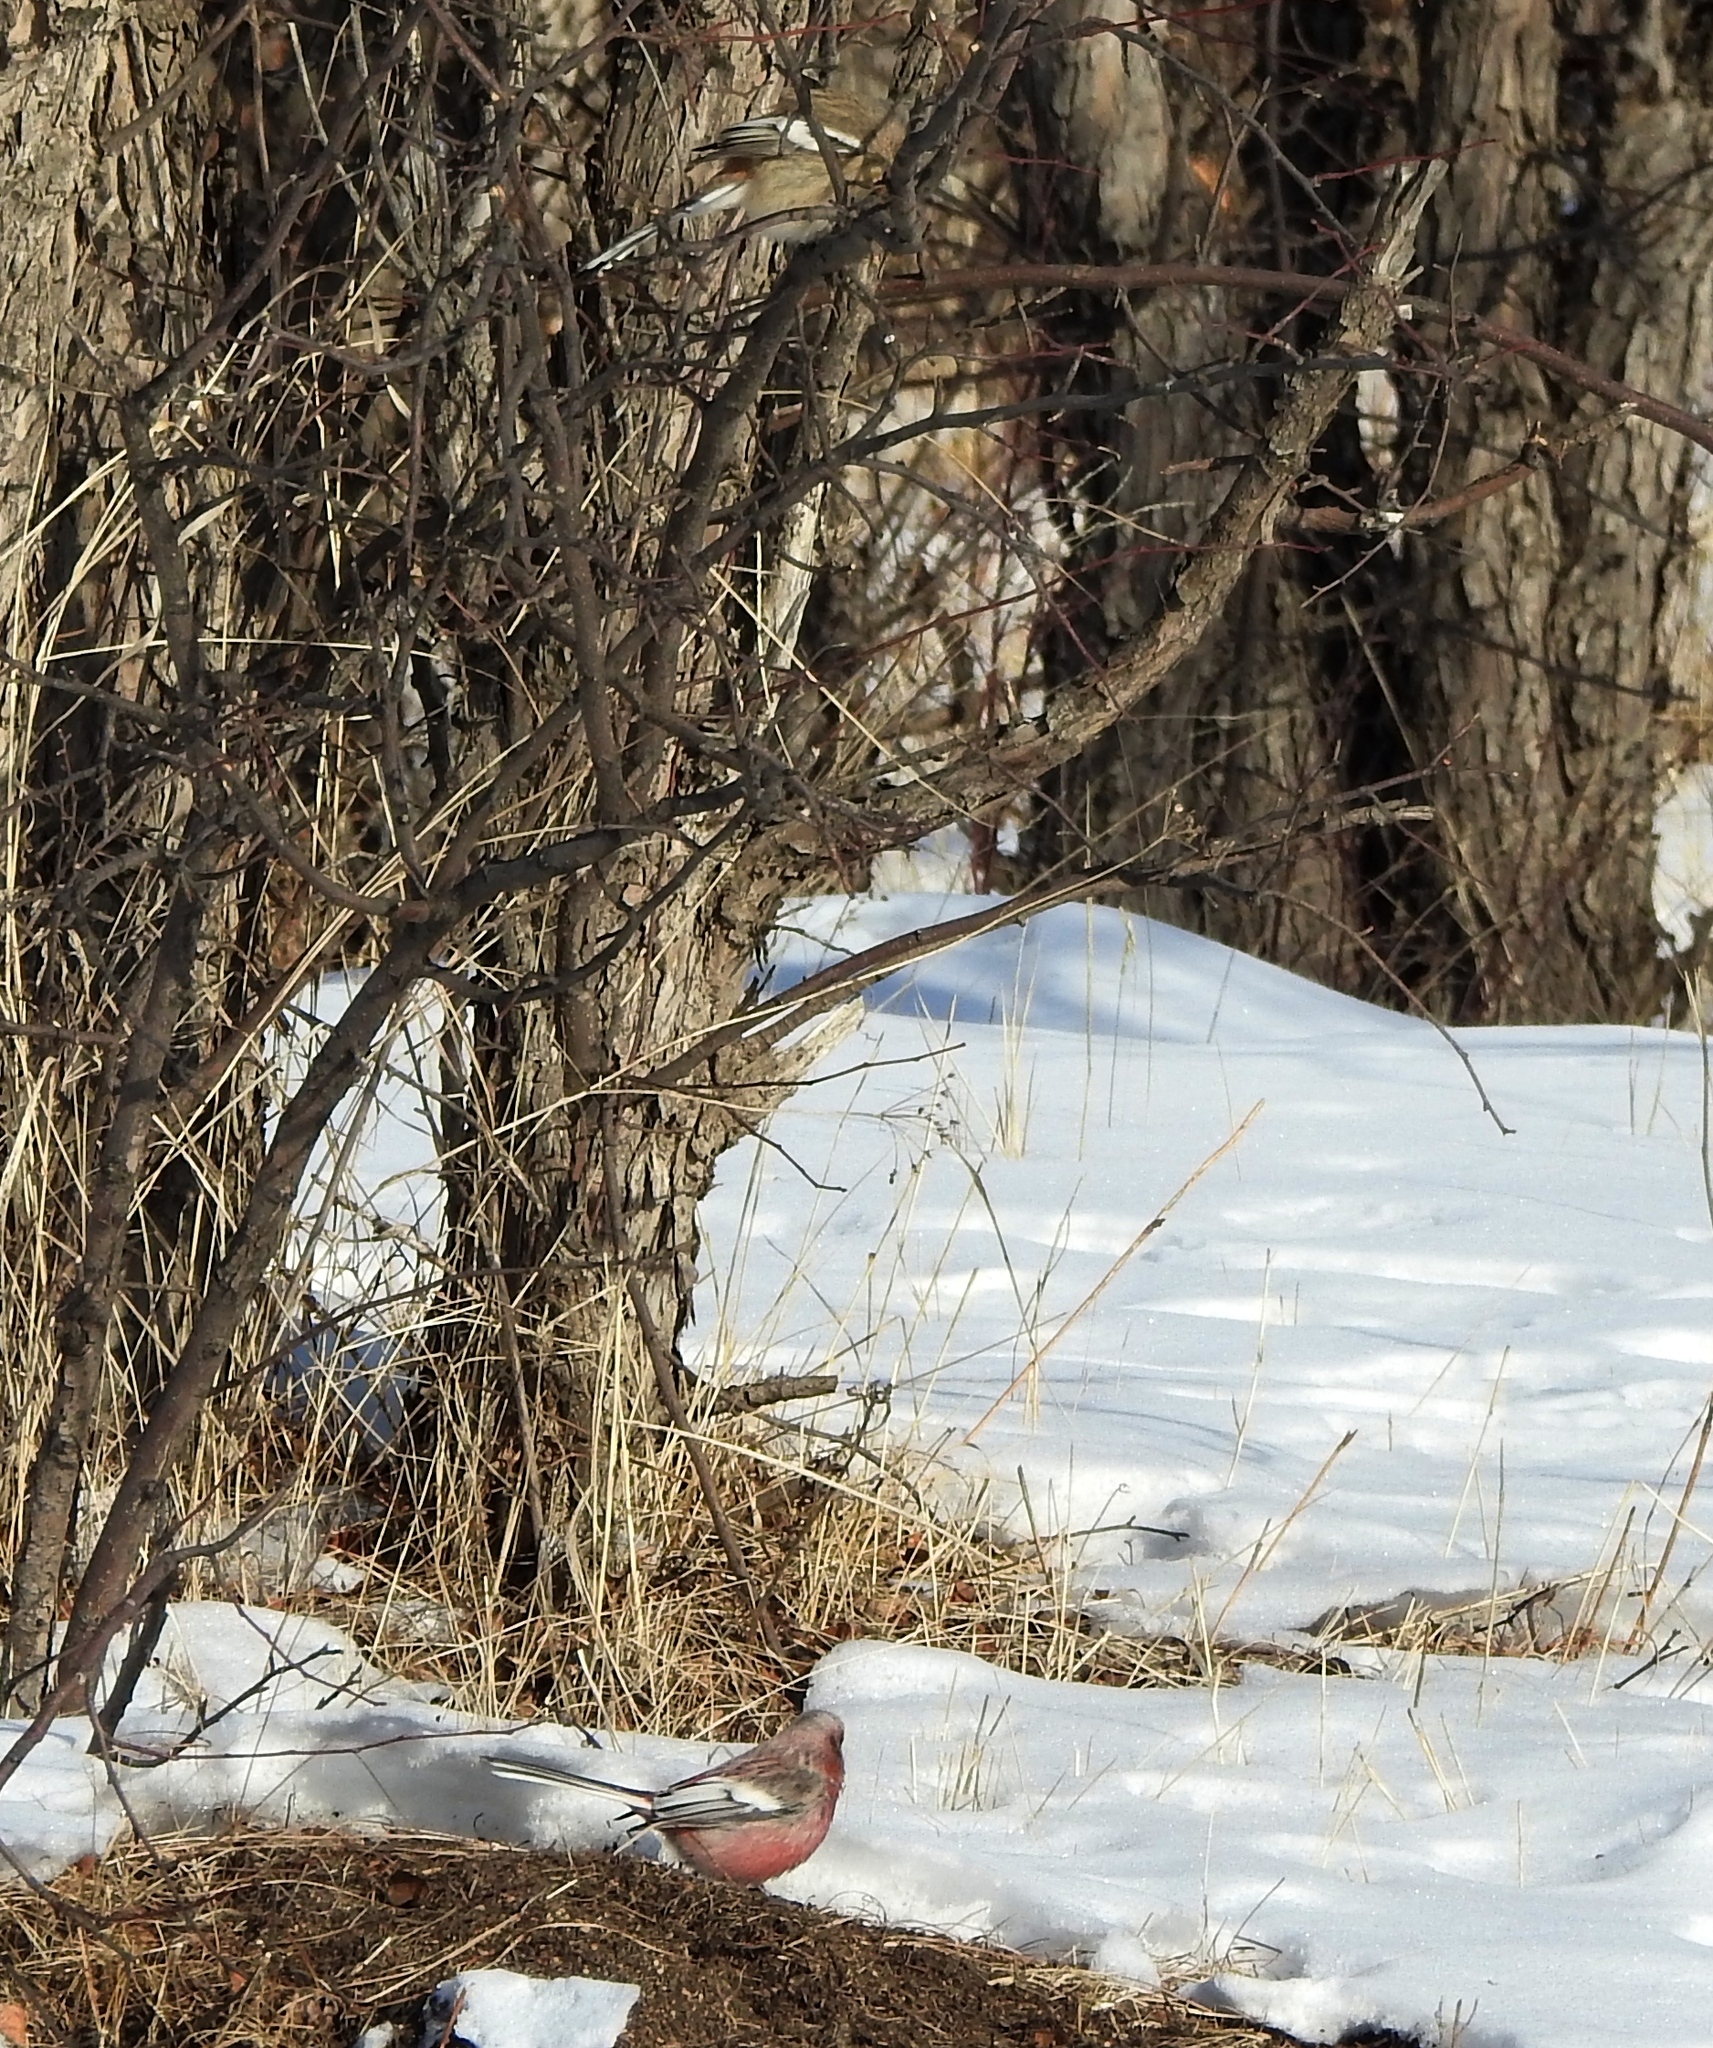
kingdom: Animalia
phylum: Chordata
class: Aves
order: Passeriformes
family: Fringillidae
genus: Carpodacus
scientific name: Carpodacus sibiricus
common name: Long-tailed rosefinch
